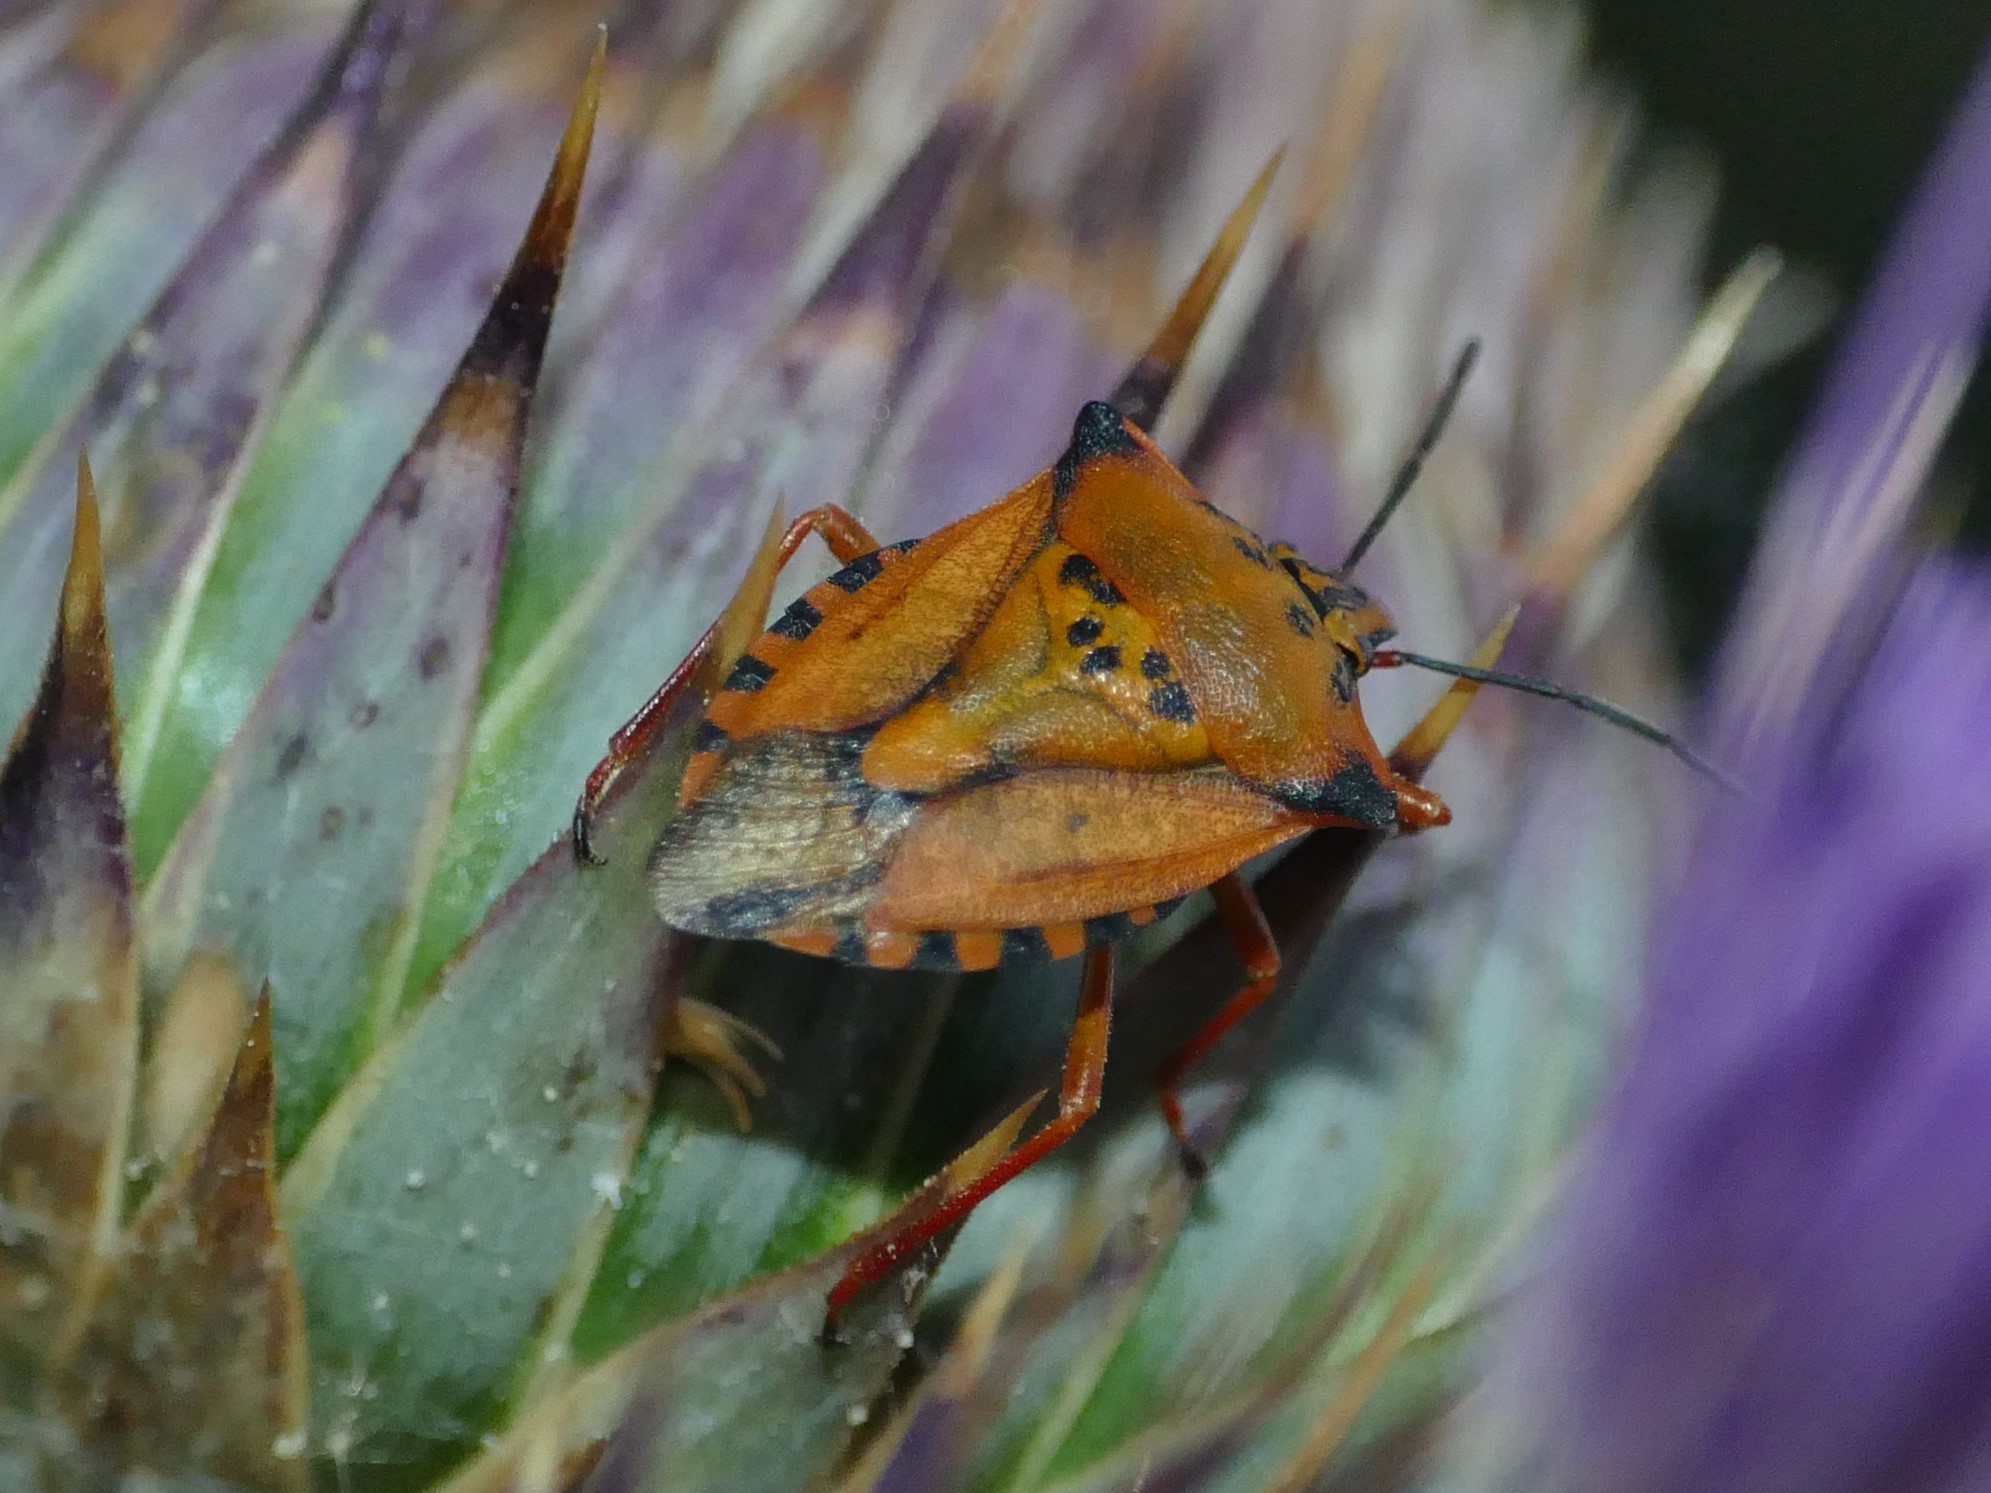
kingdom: Animalia
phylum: Arthropoda
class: Insecta
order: Hemiptera
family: Pentatomidae
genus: Carpocoris
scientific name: Carpocoris mediterraneus
